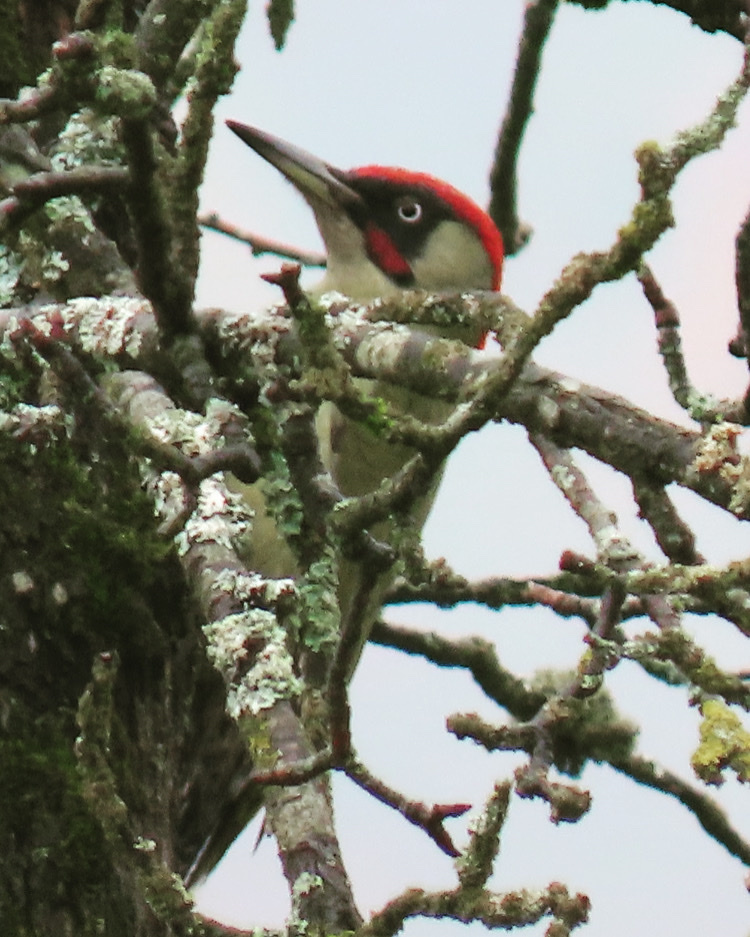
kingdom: Animalia
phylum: Chordata
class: Aves
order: Piciformes
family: Picidae
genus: Picus
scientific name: Picus viridis
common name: European green woodpecker
